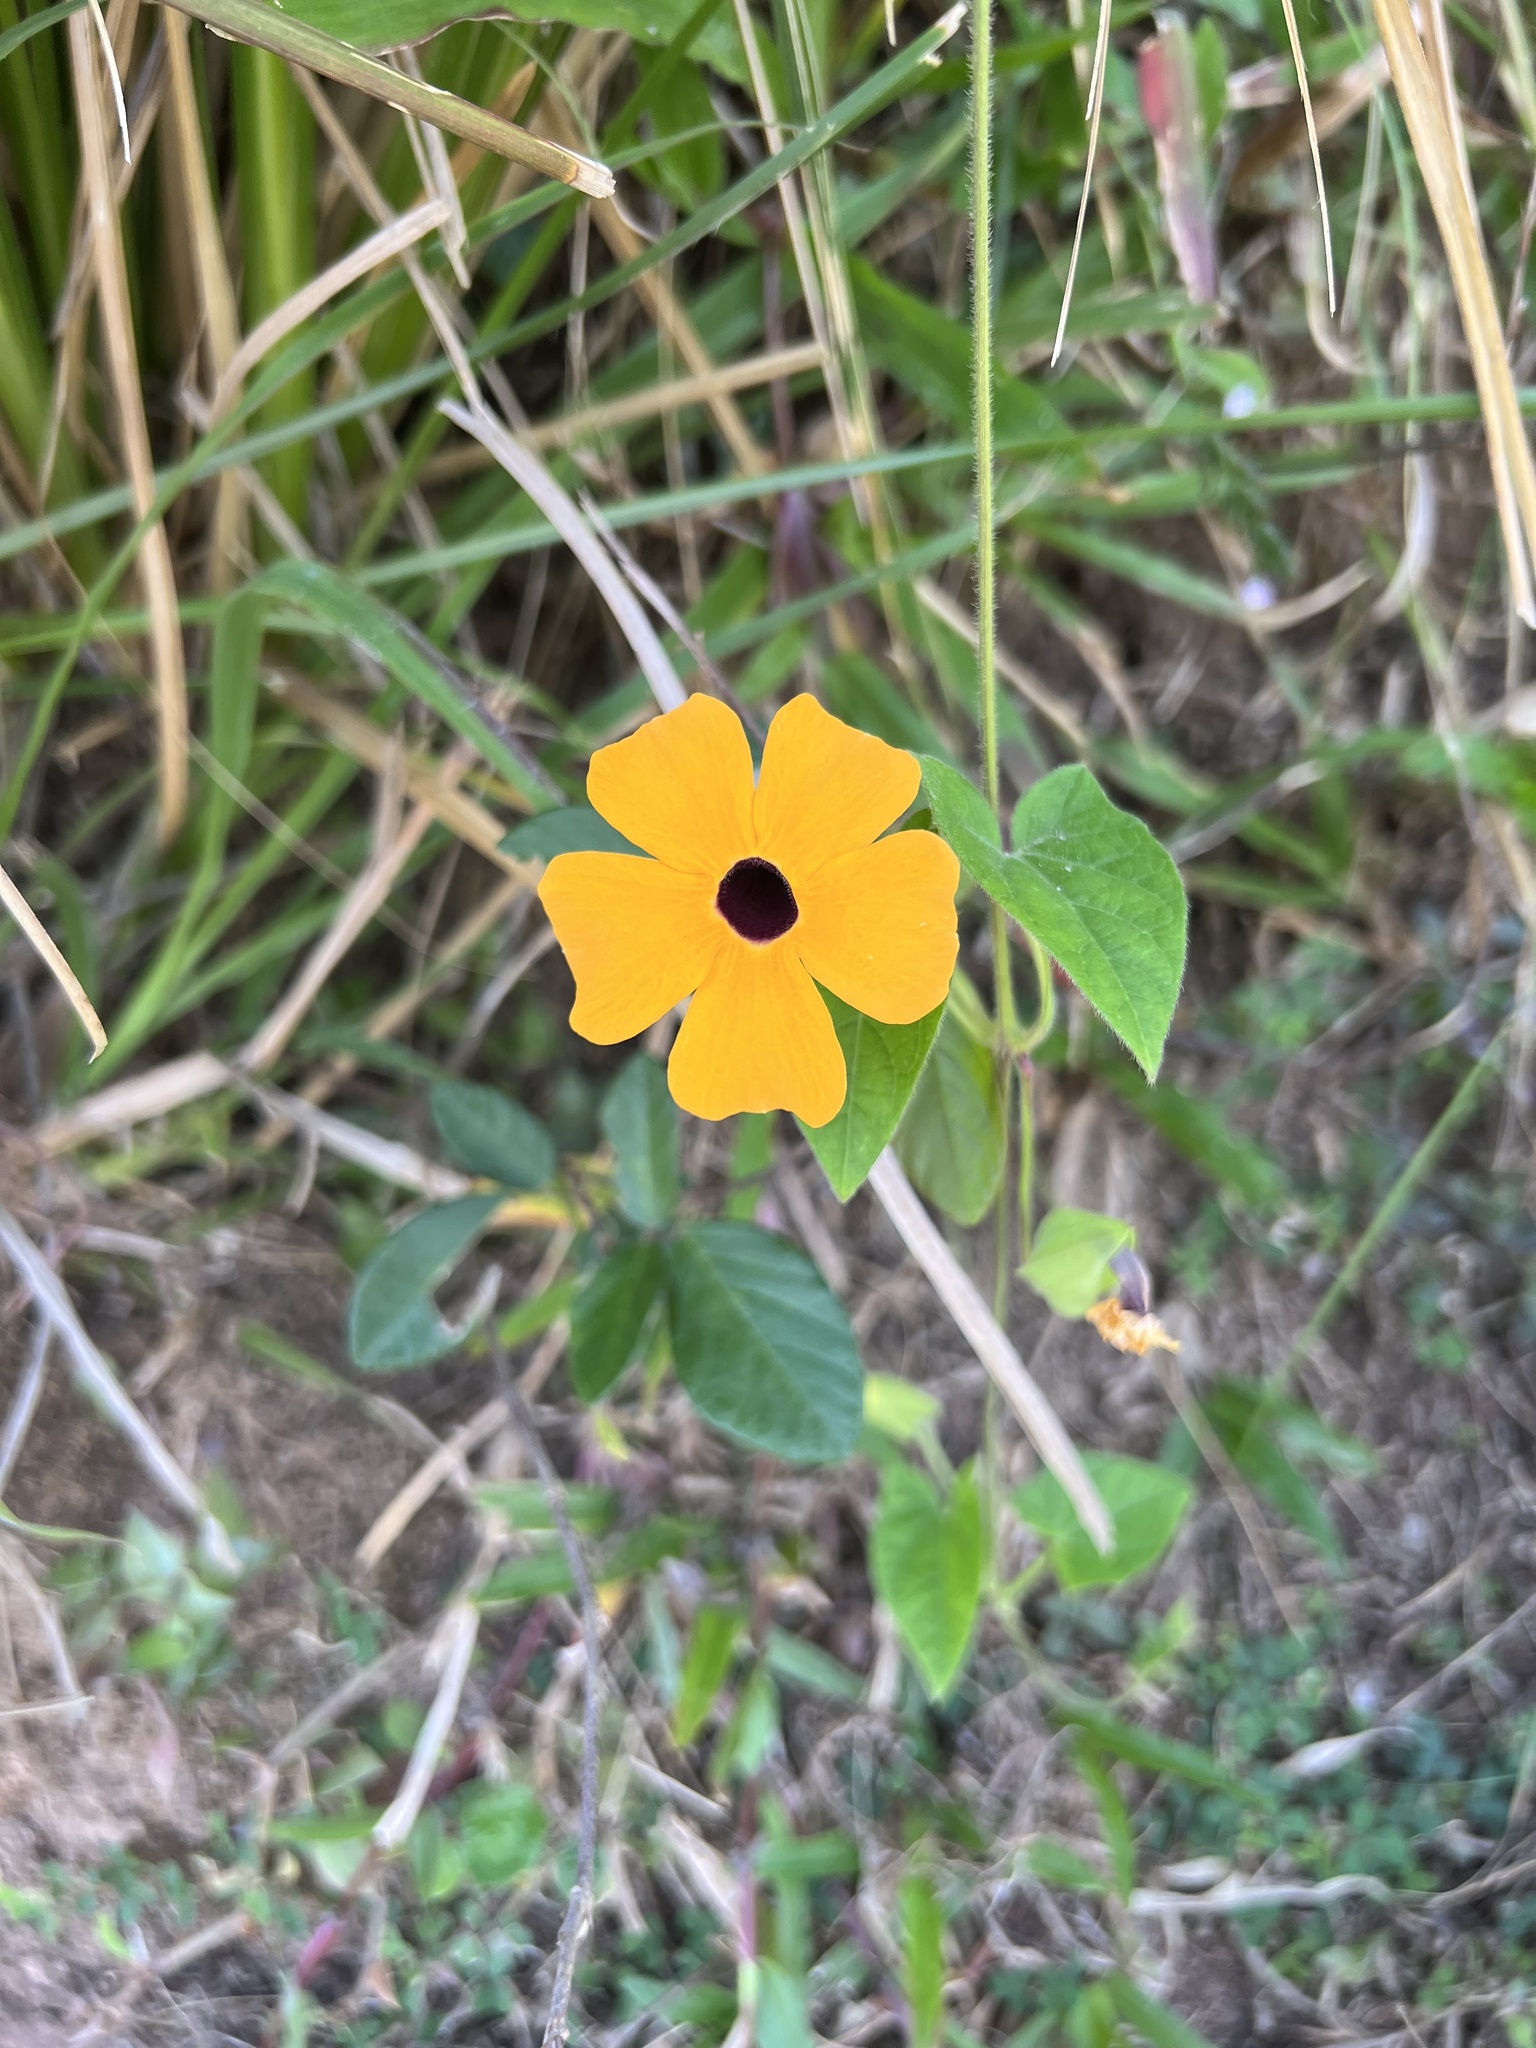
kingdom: Plantae
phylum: Tracheophyta
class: Magnoliopsida
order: Lamiales
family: Acanthaceae
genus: Thunbergia
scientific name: Thunbergia alata
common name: Blackeyed susan vine
